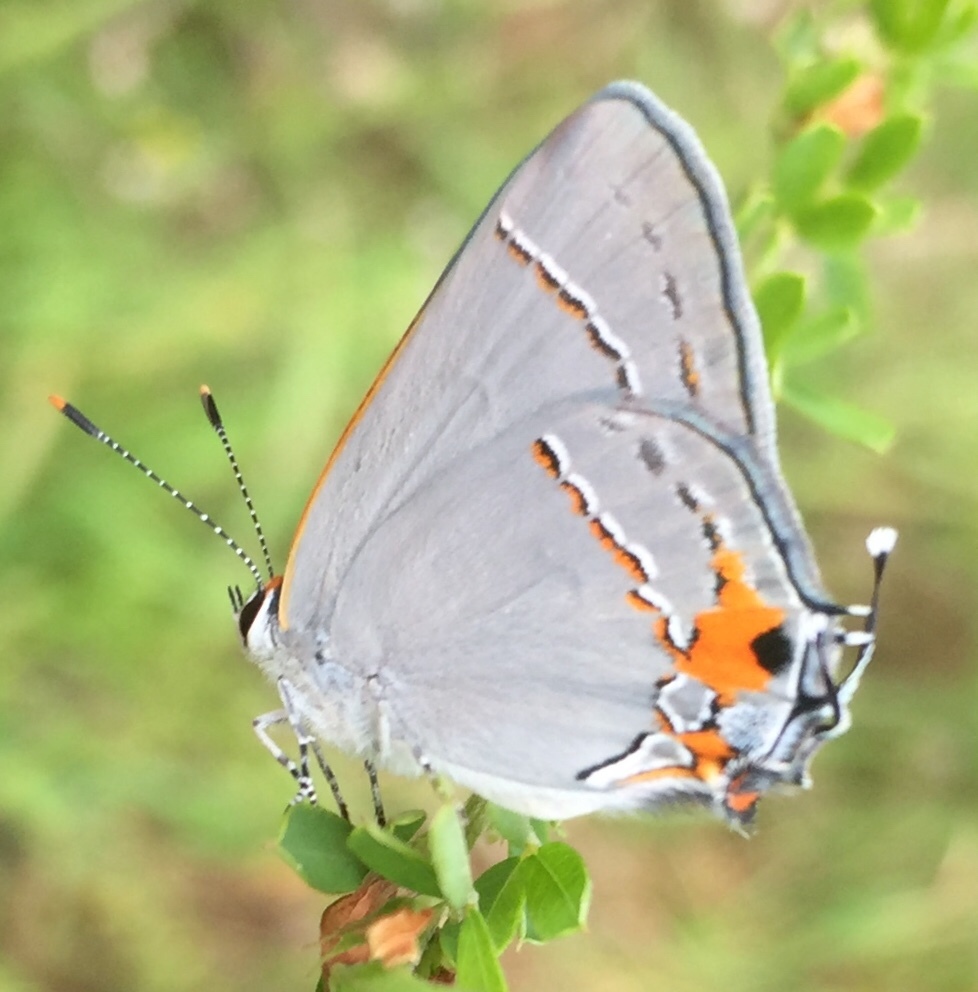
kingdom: Animalia
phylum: Arthropoda
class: Insecta
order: Lepidoptera
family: Lycaenidae
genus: Strymon
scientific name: Strymon melinus
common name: Gray hairstreak
